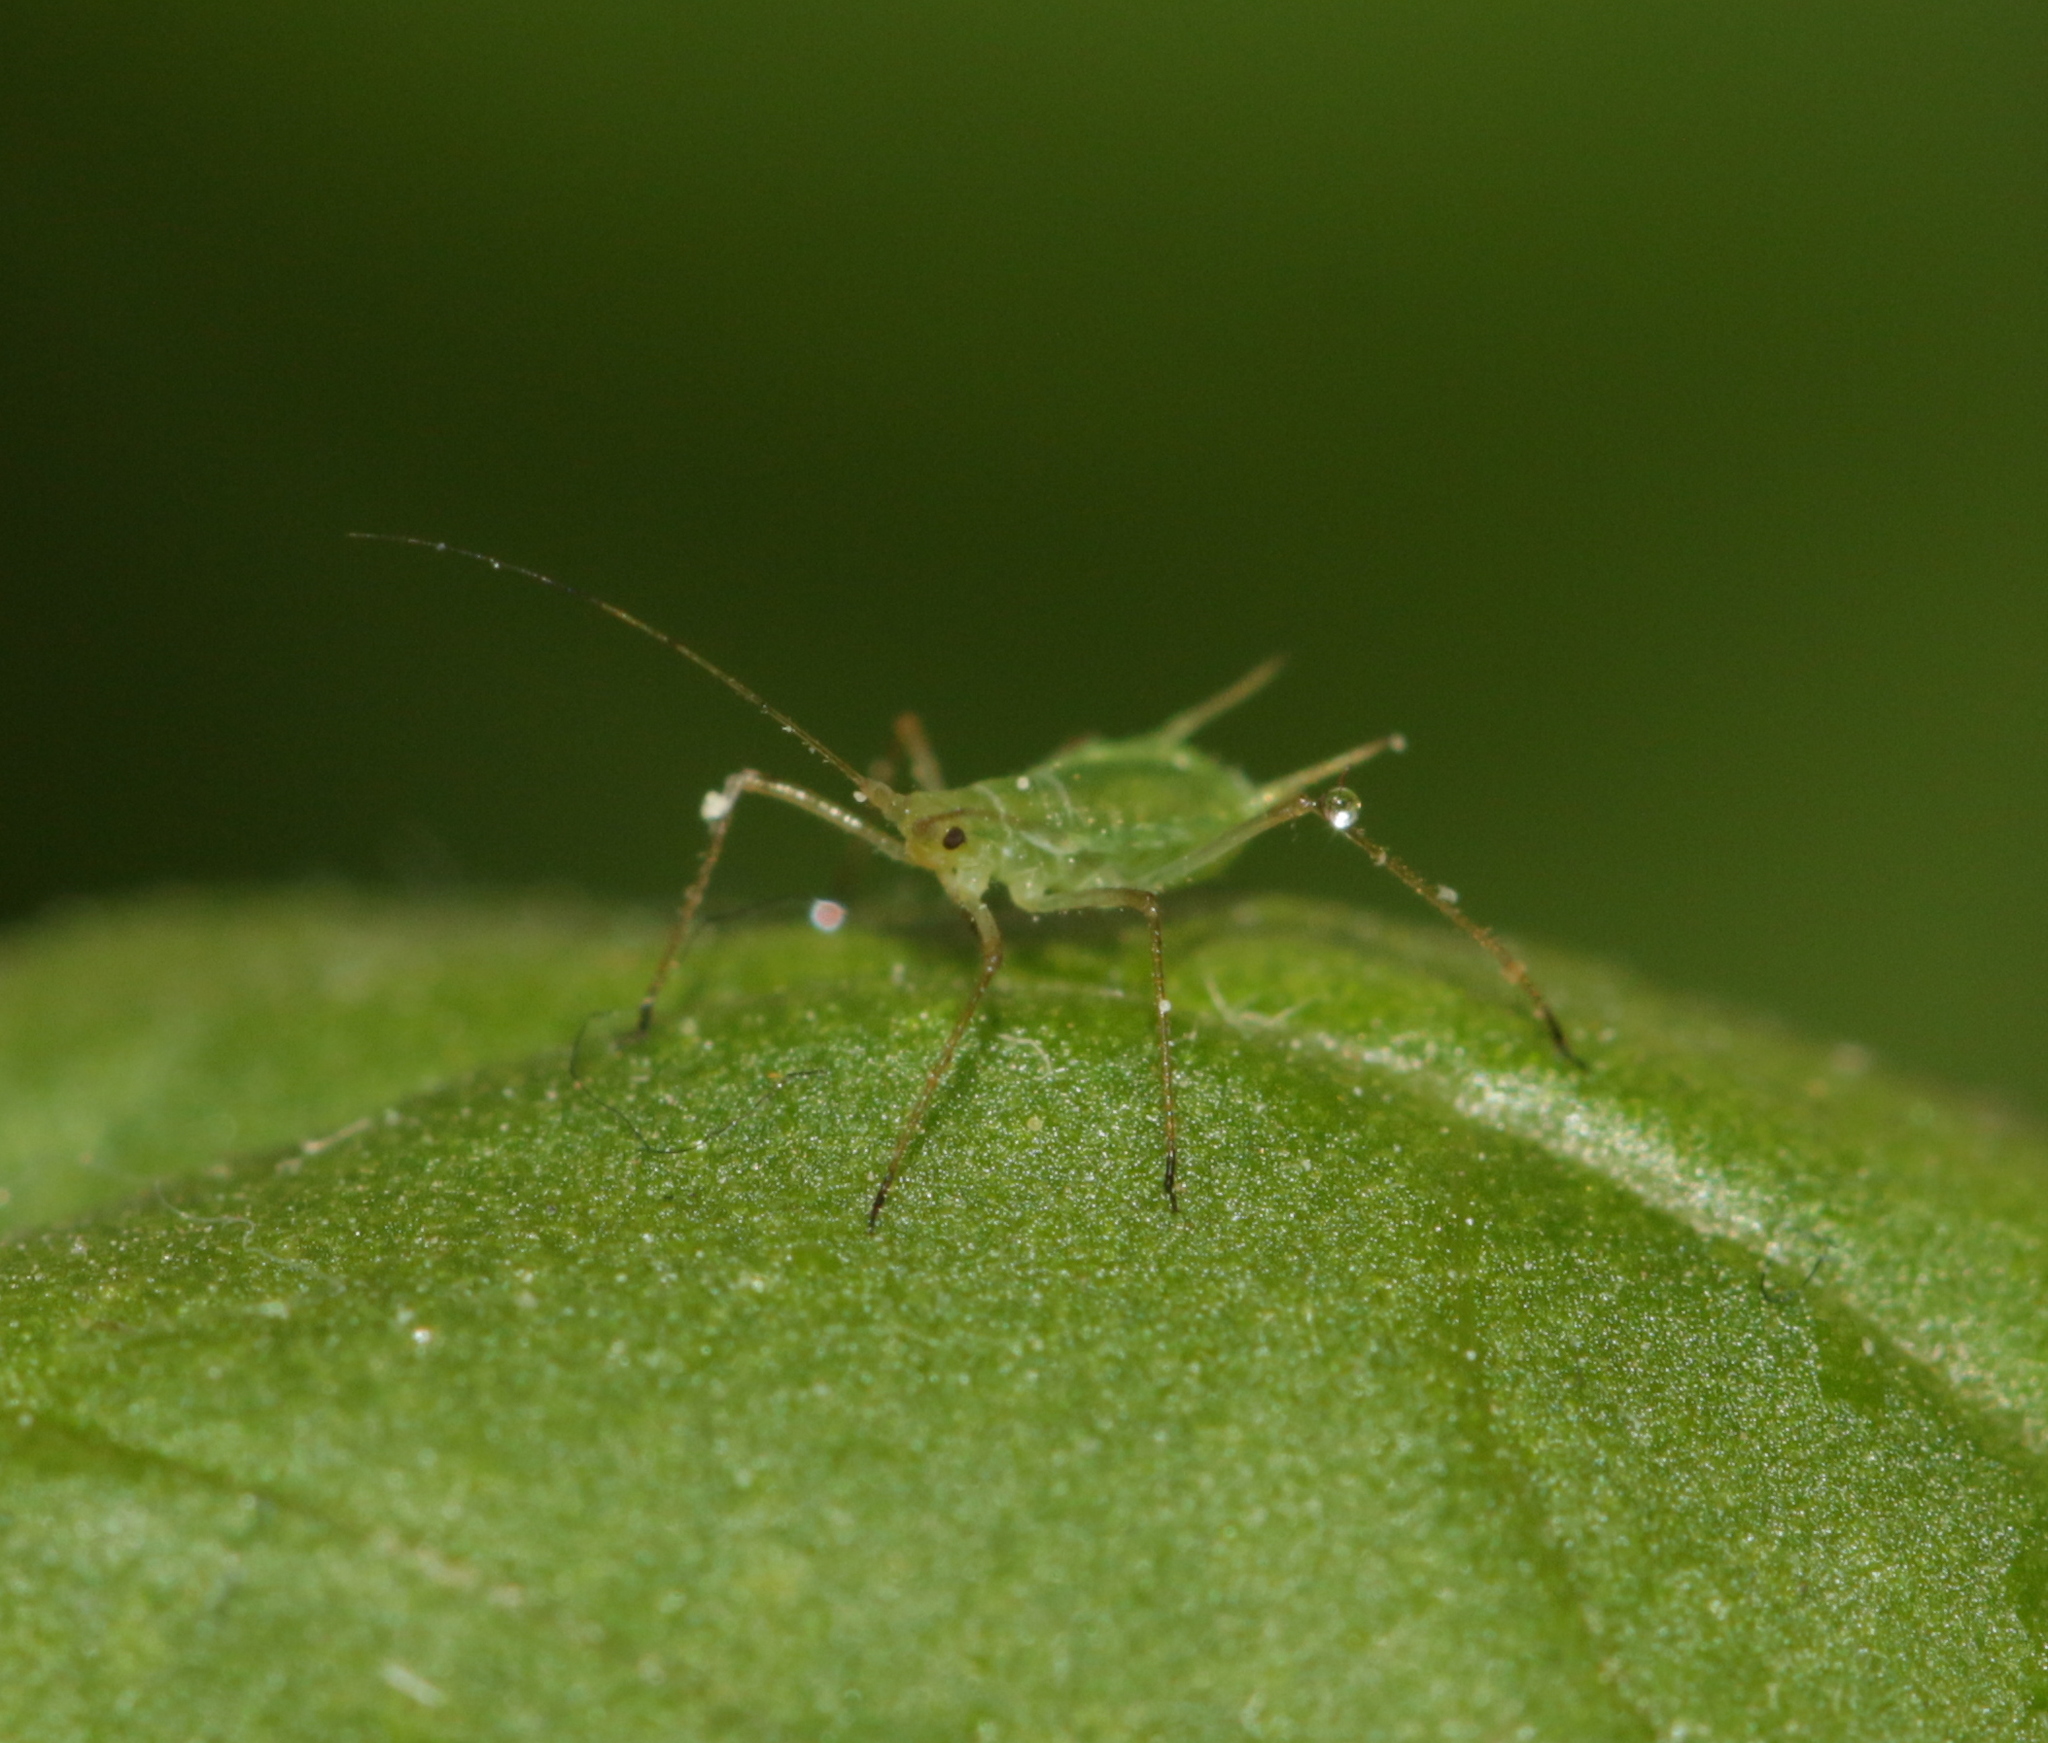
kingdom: Animalia
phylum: Arthropoda
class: Insecta
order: Hemiptera
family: Aphididae
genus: Macrosiphum
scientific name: Macrosiphum euphorbiae
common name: Potato aphid
